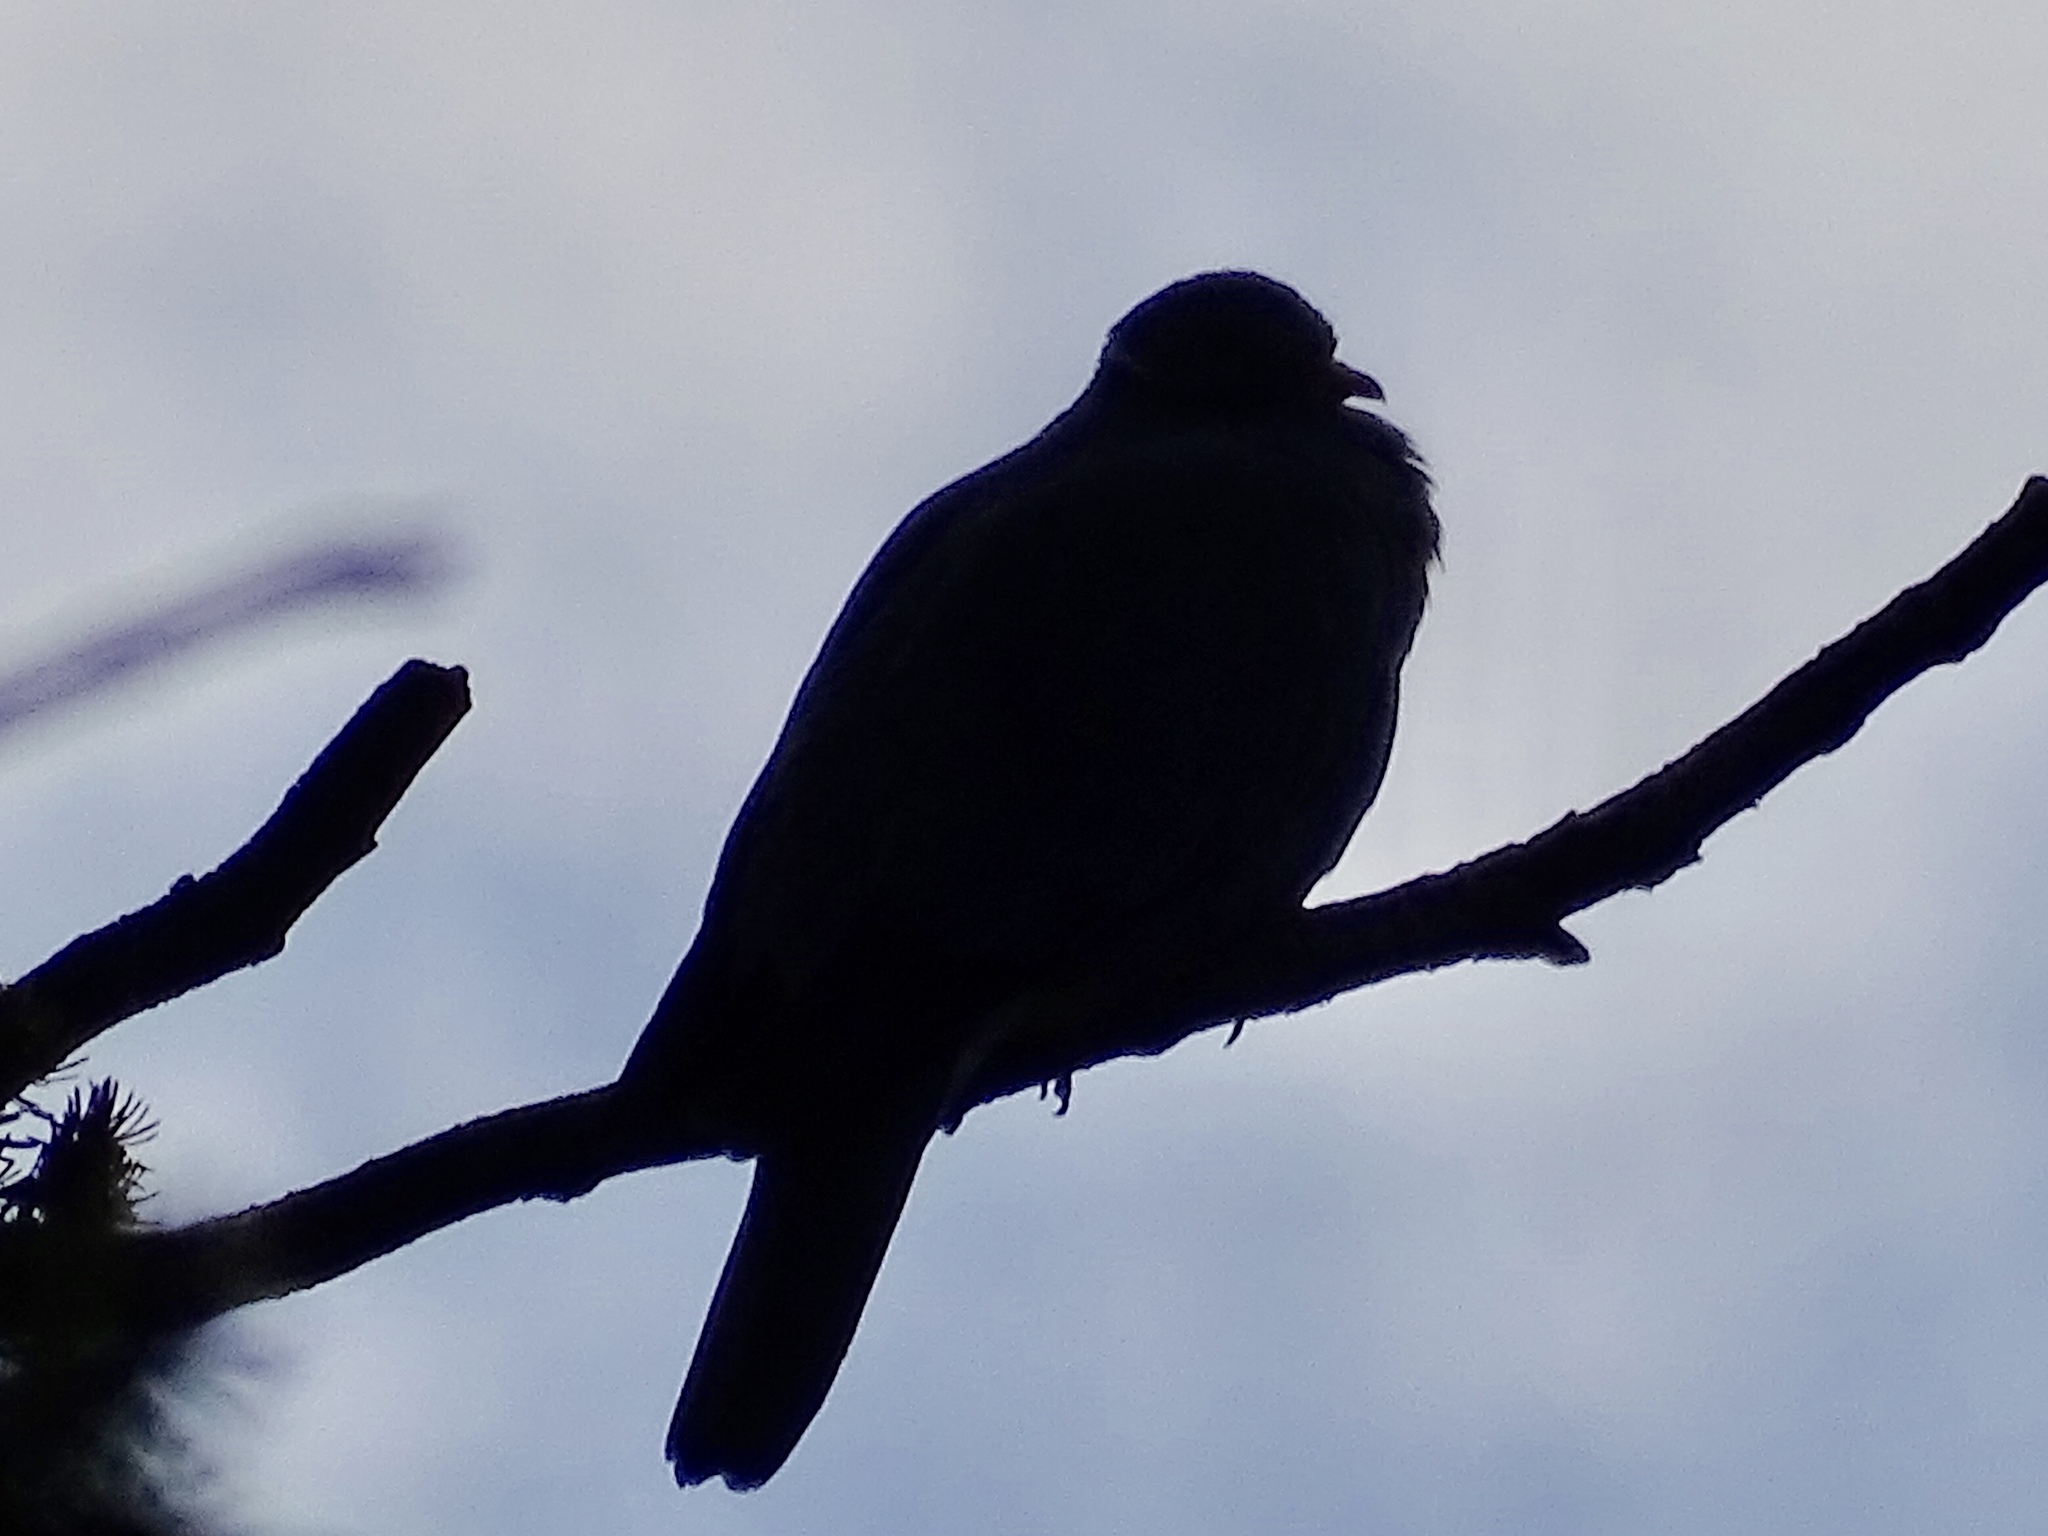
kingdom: Animalia
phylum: Chordata
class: Aves
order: Columbiformes
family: Columbidae
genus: Patagioenas
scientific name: Patagioenas fasciata
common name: Band-tailed pigeon
